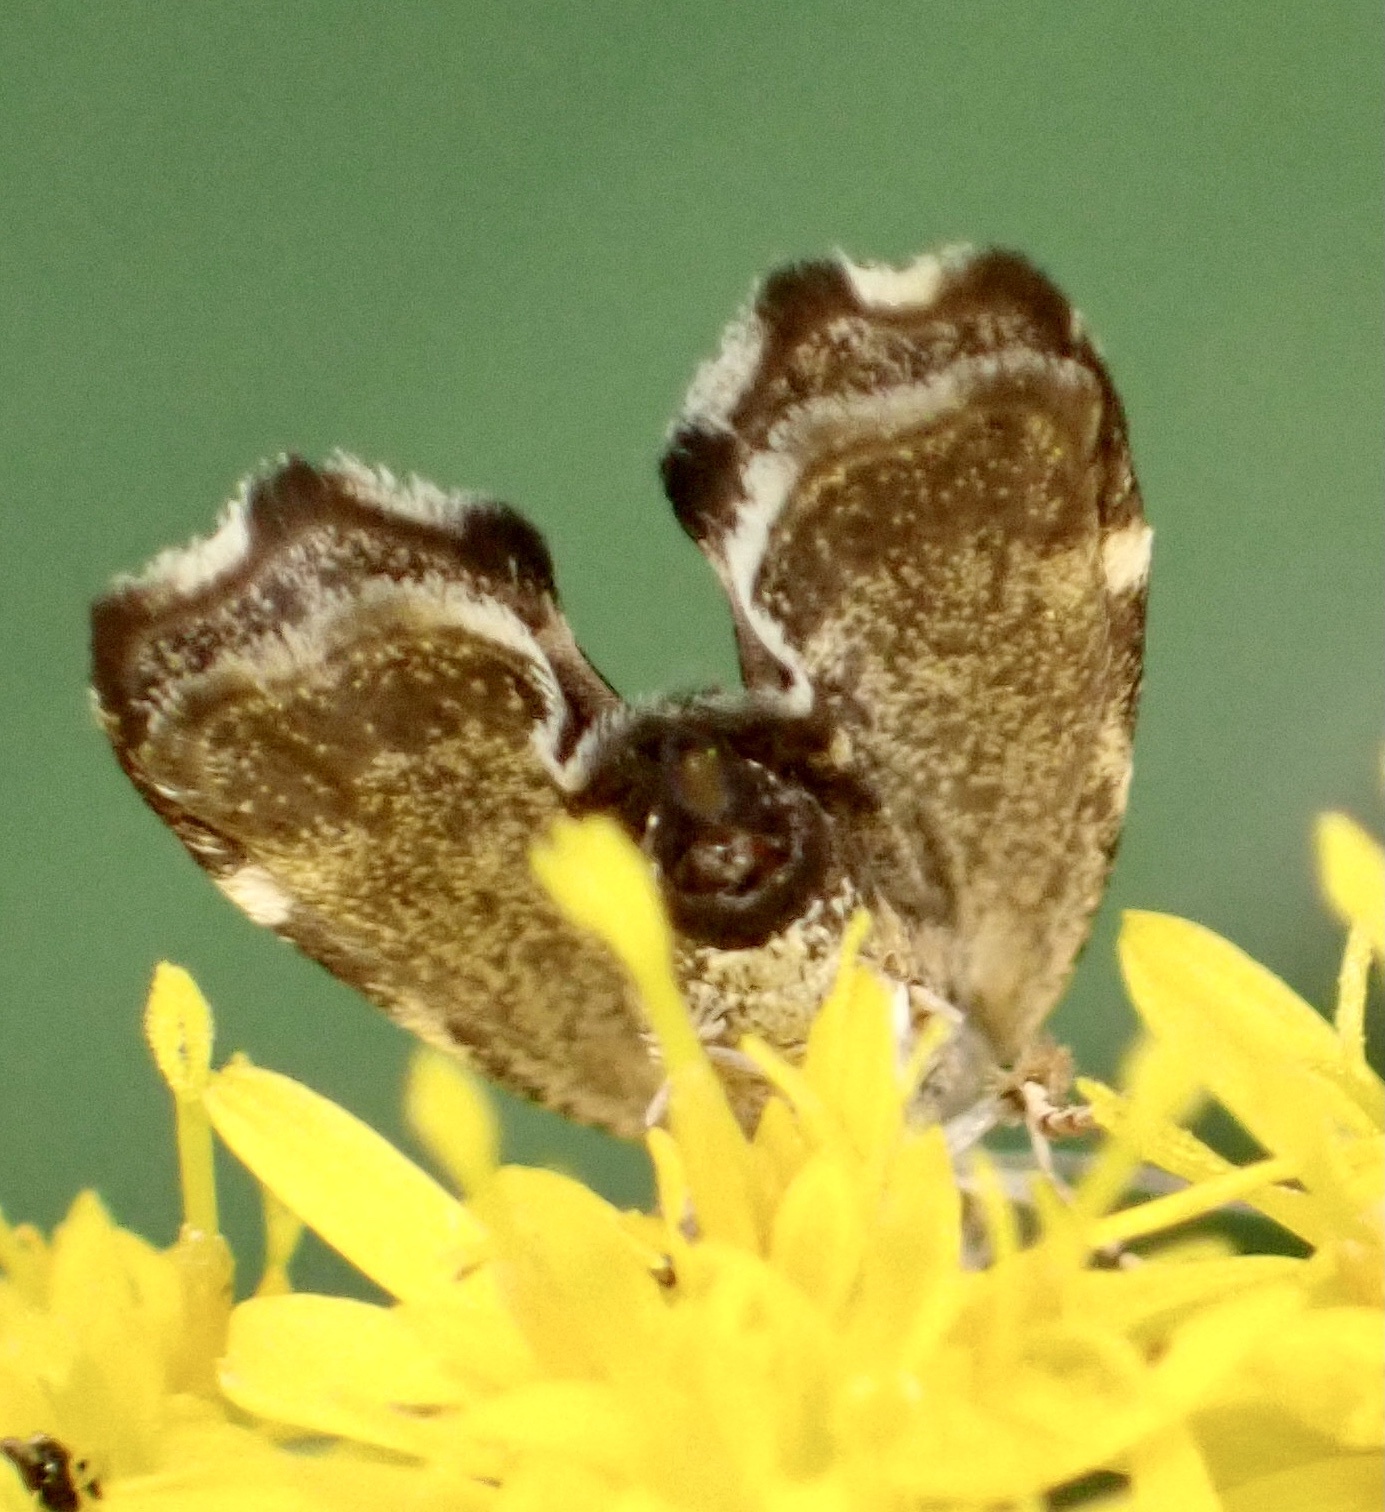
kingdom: Animalia
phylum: Arthropoda
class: Insecta
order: Lepidoptera
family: Choreutidae
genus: Anthophila
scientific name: Anthophila fabriciana
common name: Nettle-tap
